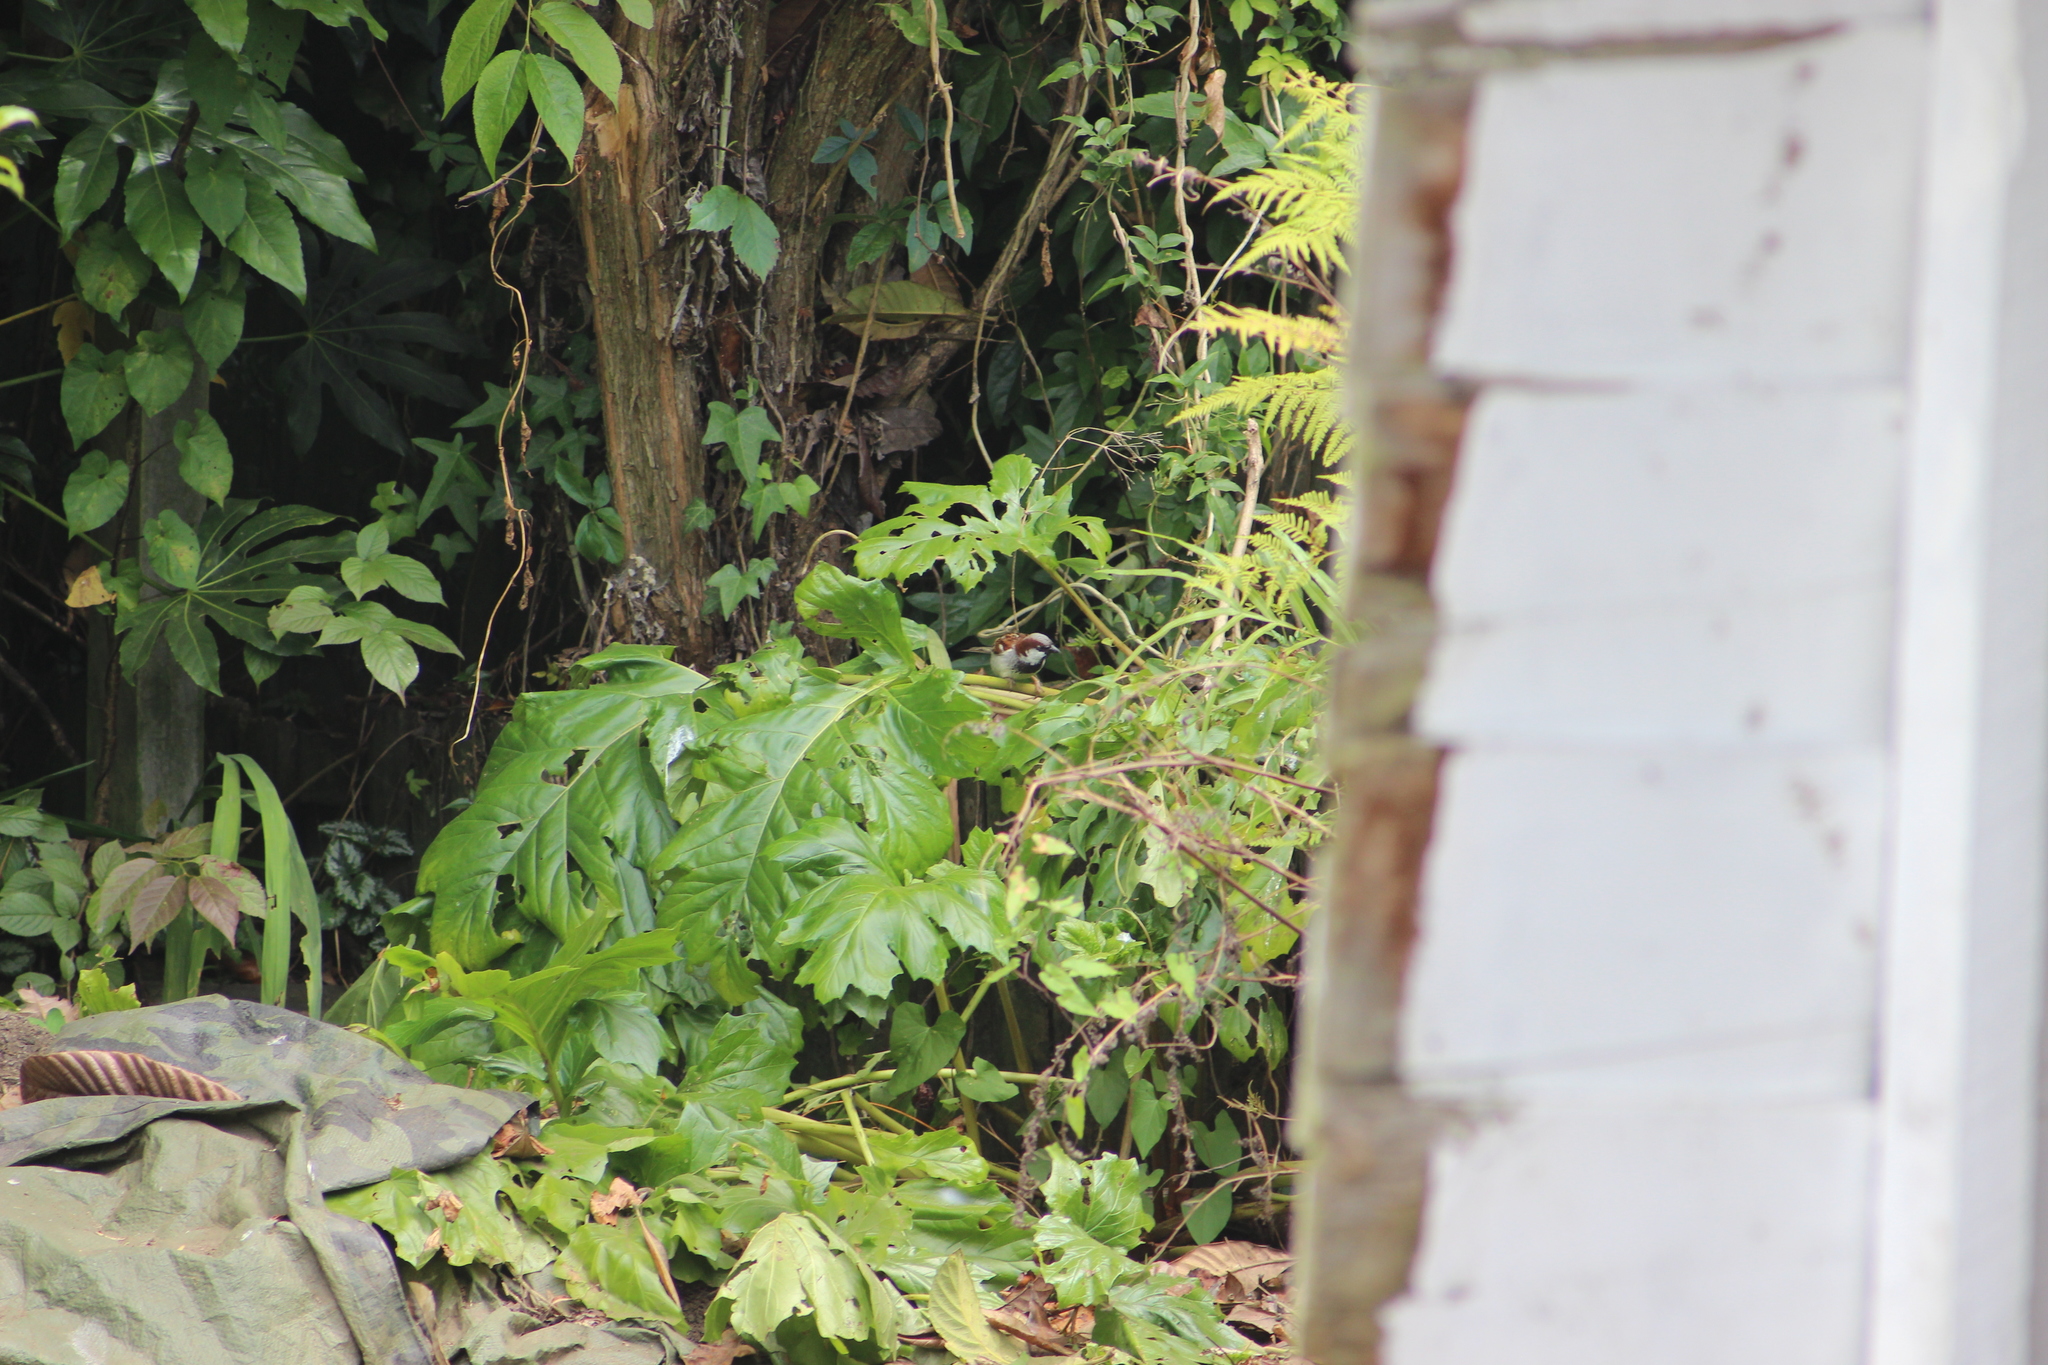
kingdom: Animalia
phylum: Chordata
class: Aves
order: Passeriformes
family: Passeridae
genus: Passer
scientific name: Passer domesticus
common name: House sparrow
